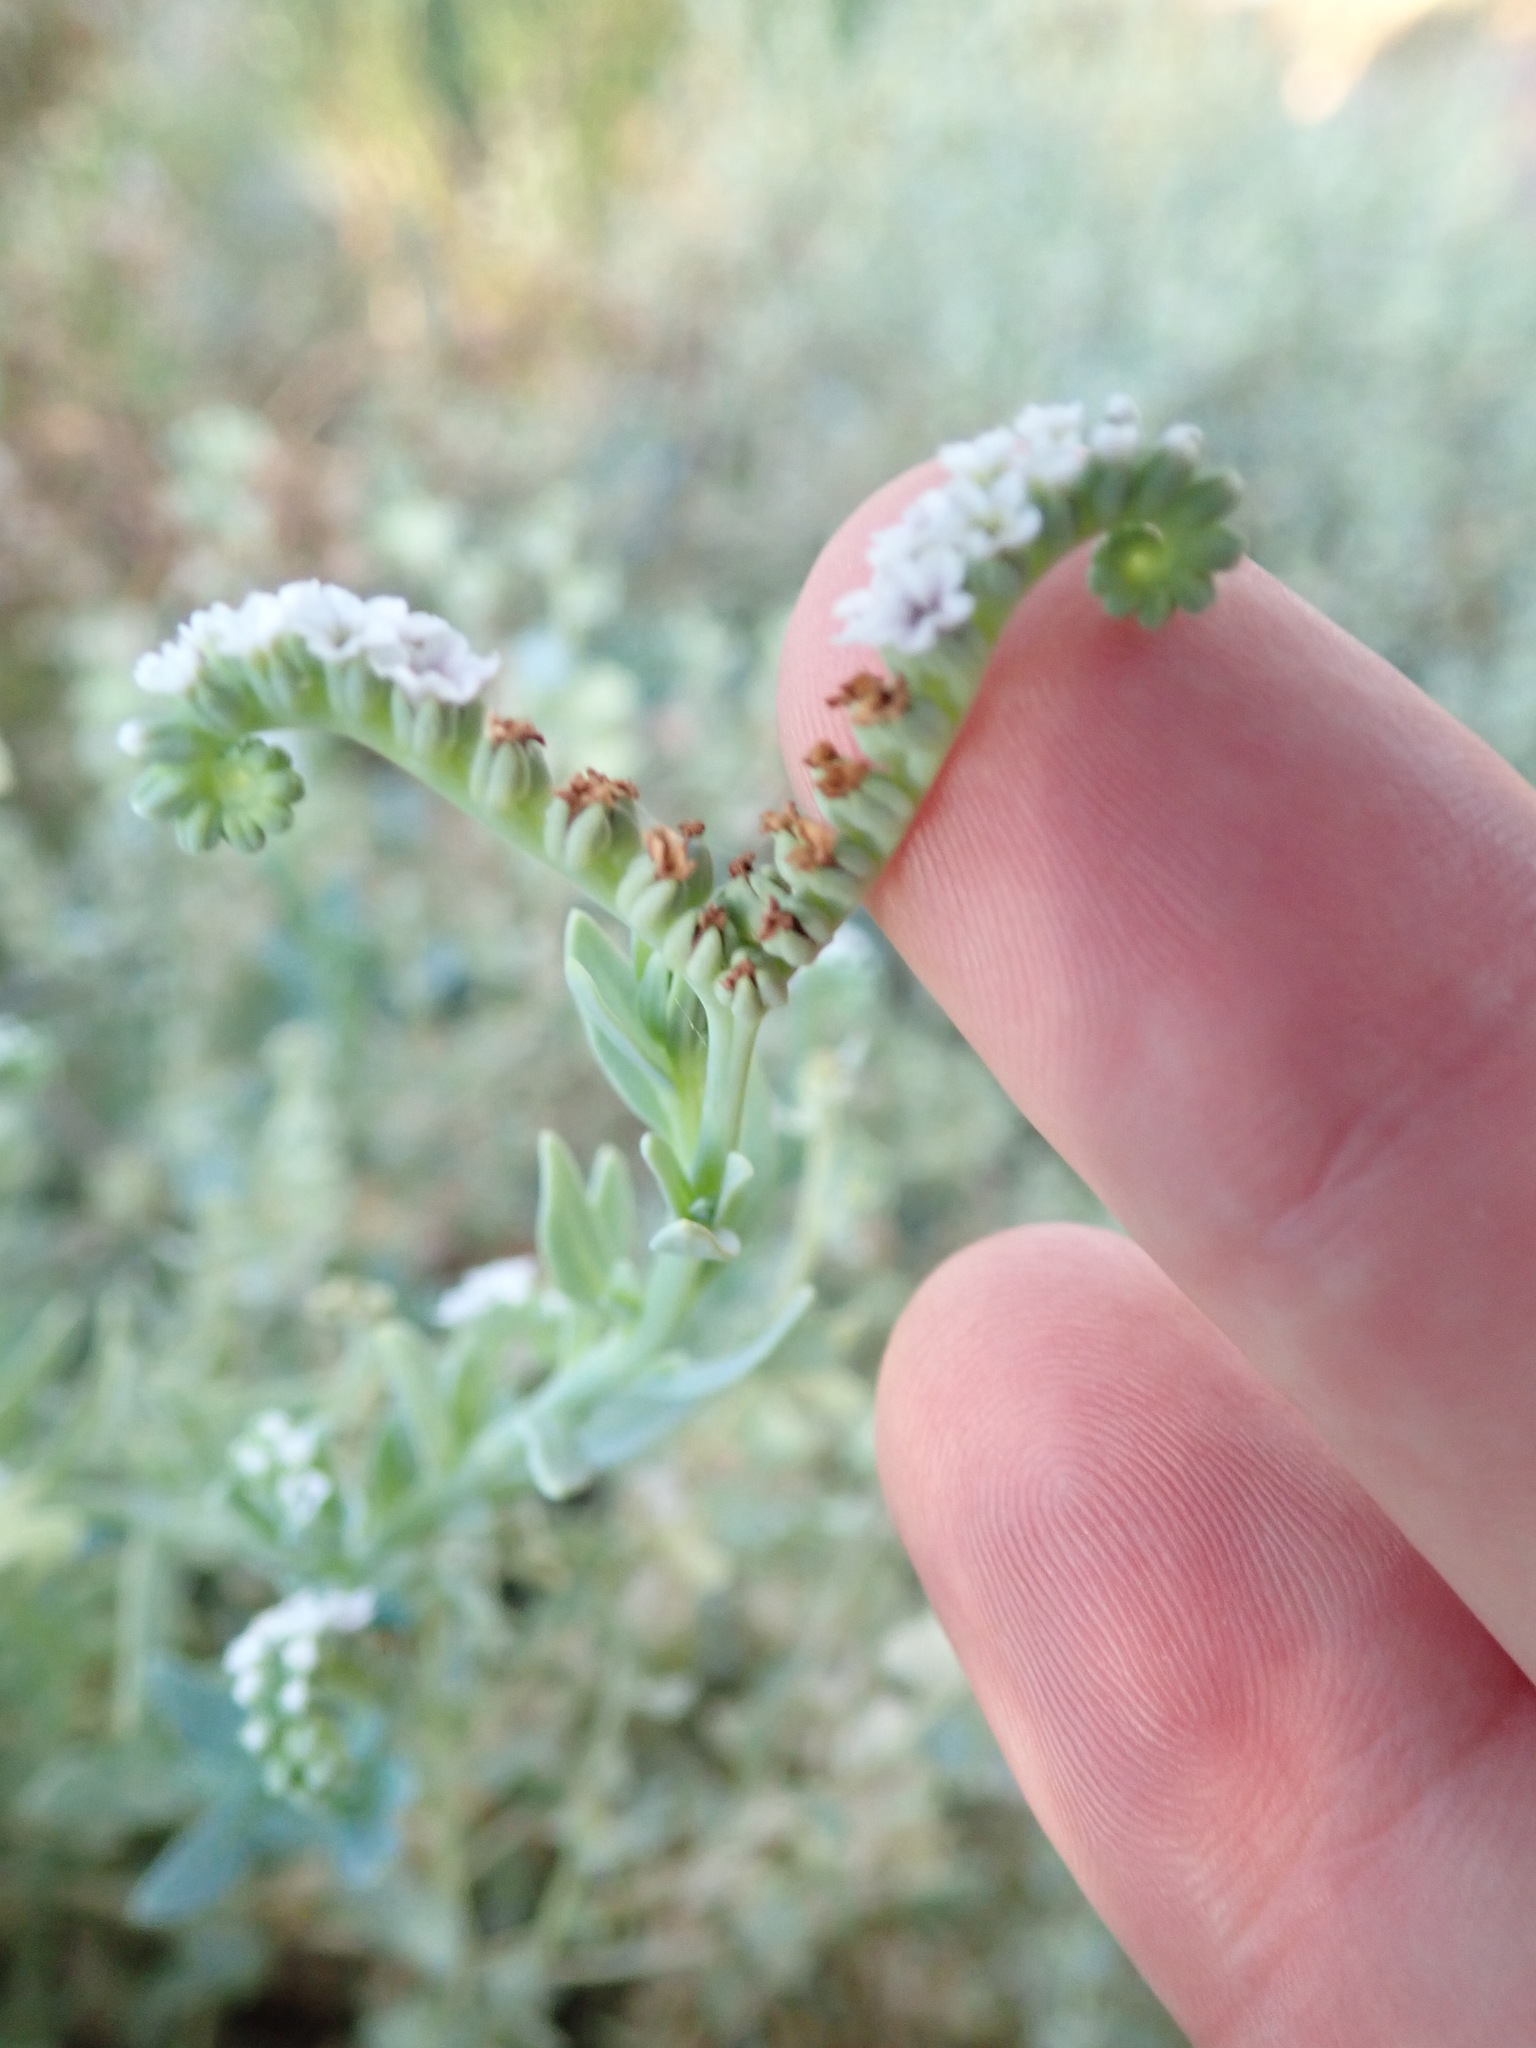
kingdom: Plantae
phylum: Tracheophyta
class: Magnoliopsida
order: Boraginales
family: Heliotropiaceae
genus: Heliotropium
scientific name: Heliotropium europaeum
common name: European heliotrope
